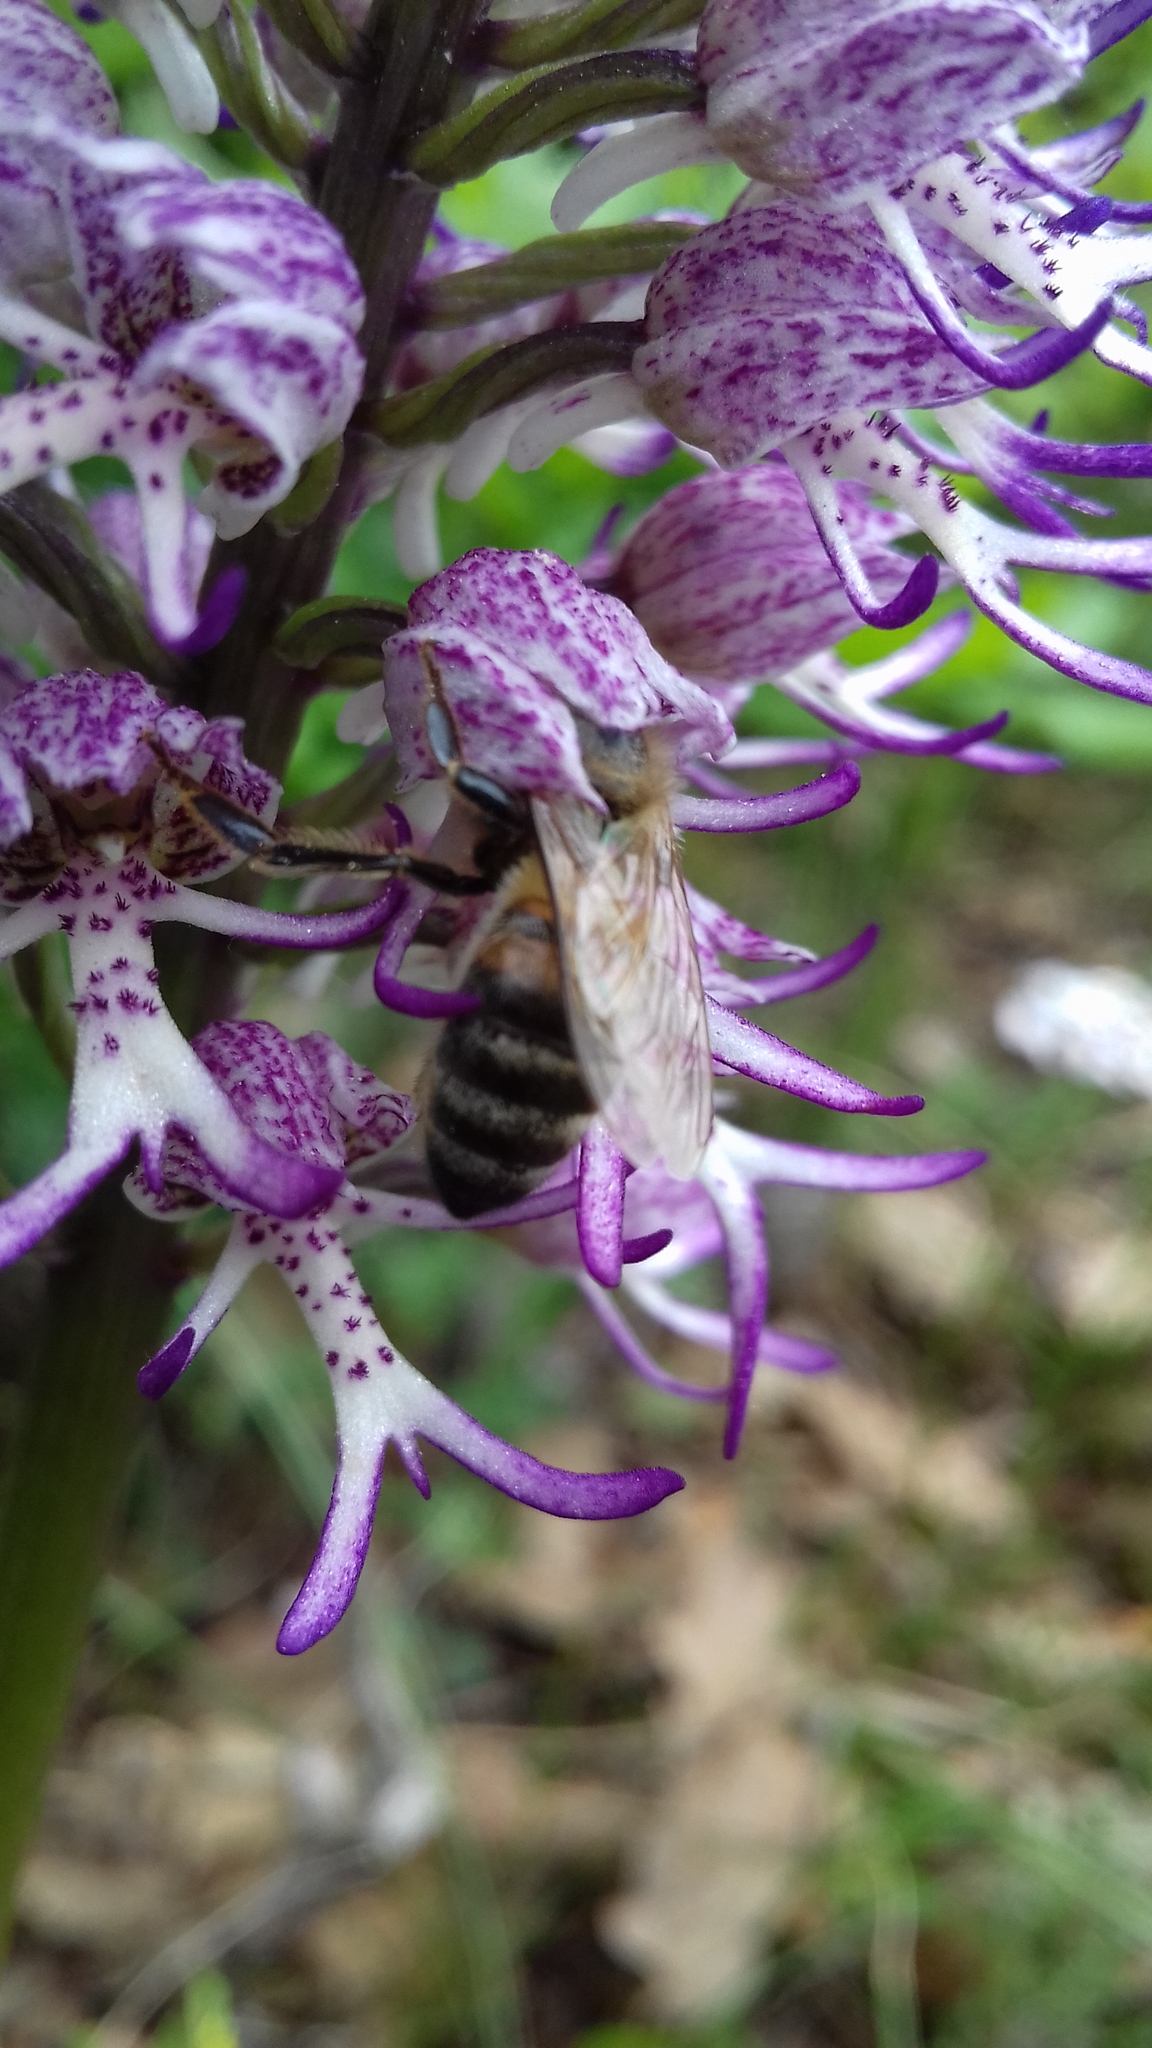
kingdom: Plantae
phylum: Tracheophyta
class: Liliopsida
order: Asparagales
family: Orchidaceae
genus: Orchis
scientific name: Orchis angusticruris
